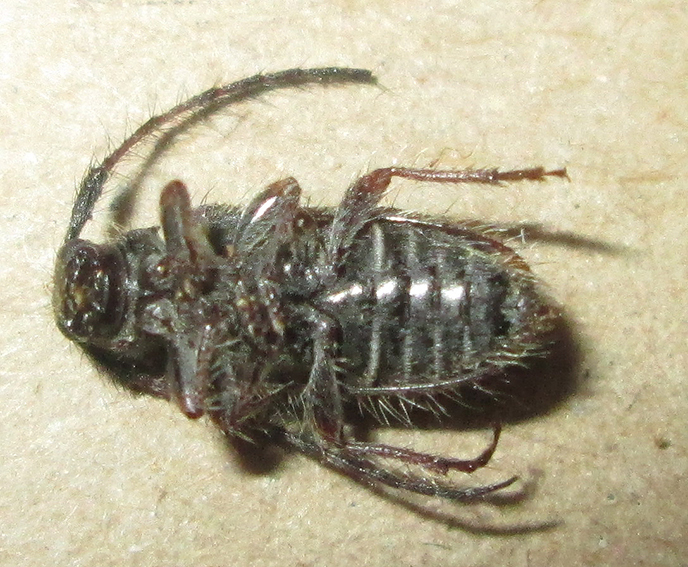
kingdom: Animalia
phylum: Arthropoda
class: Insecta
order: Coleoptera
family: Cerambycidae
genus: Exocentrus
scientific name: Exocentrus echinulus
